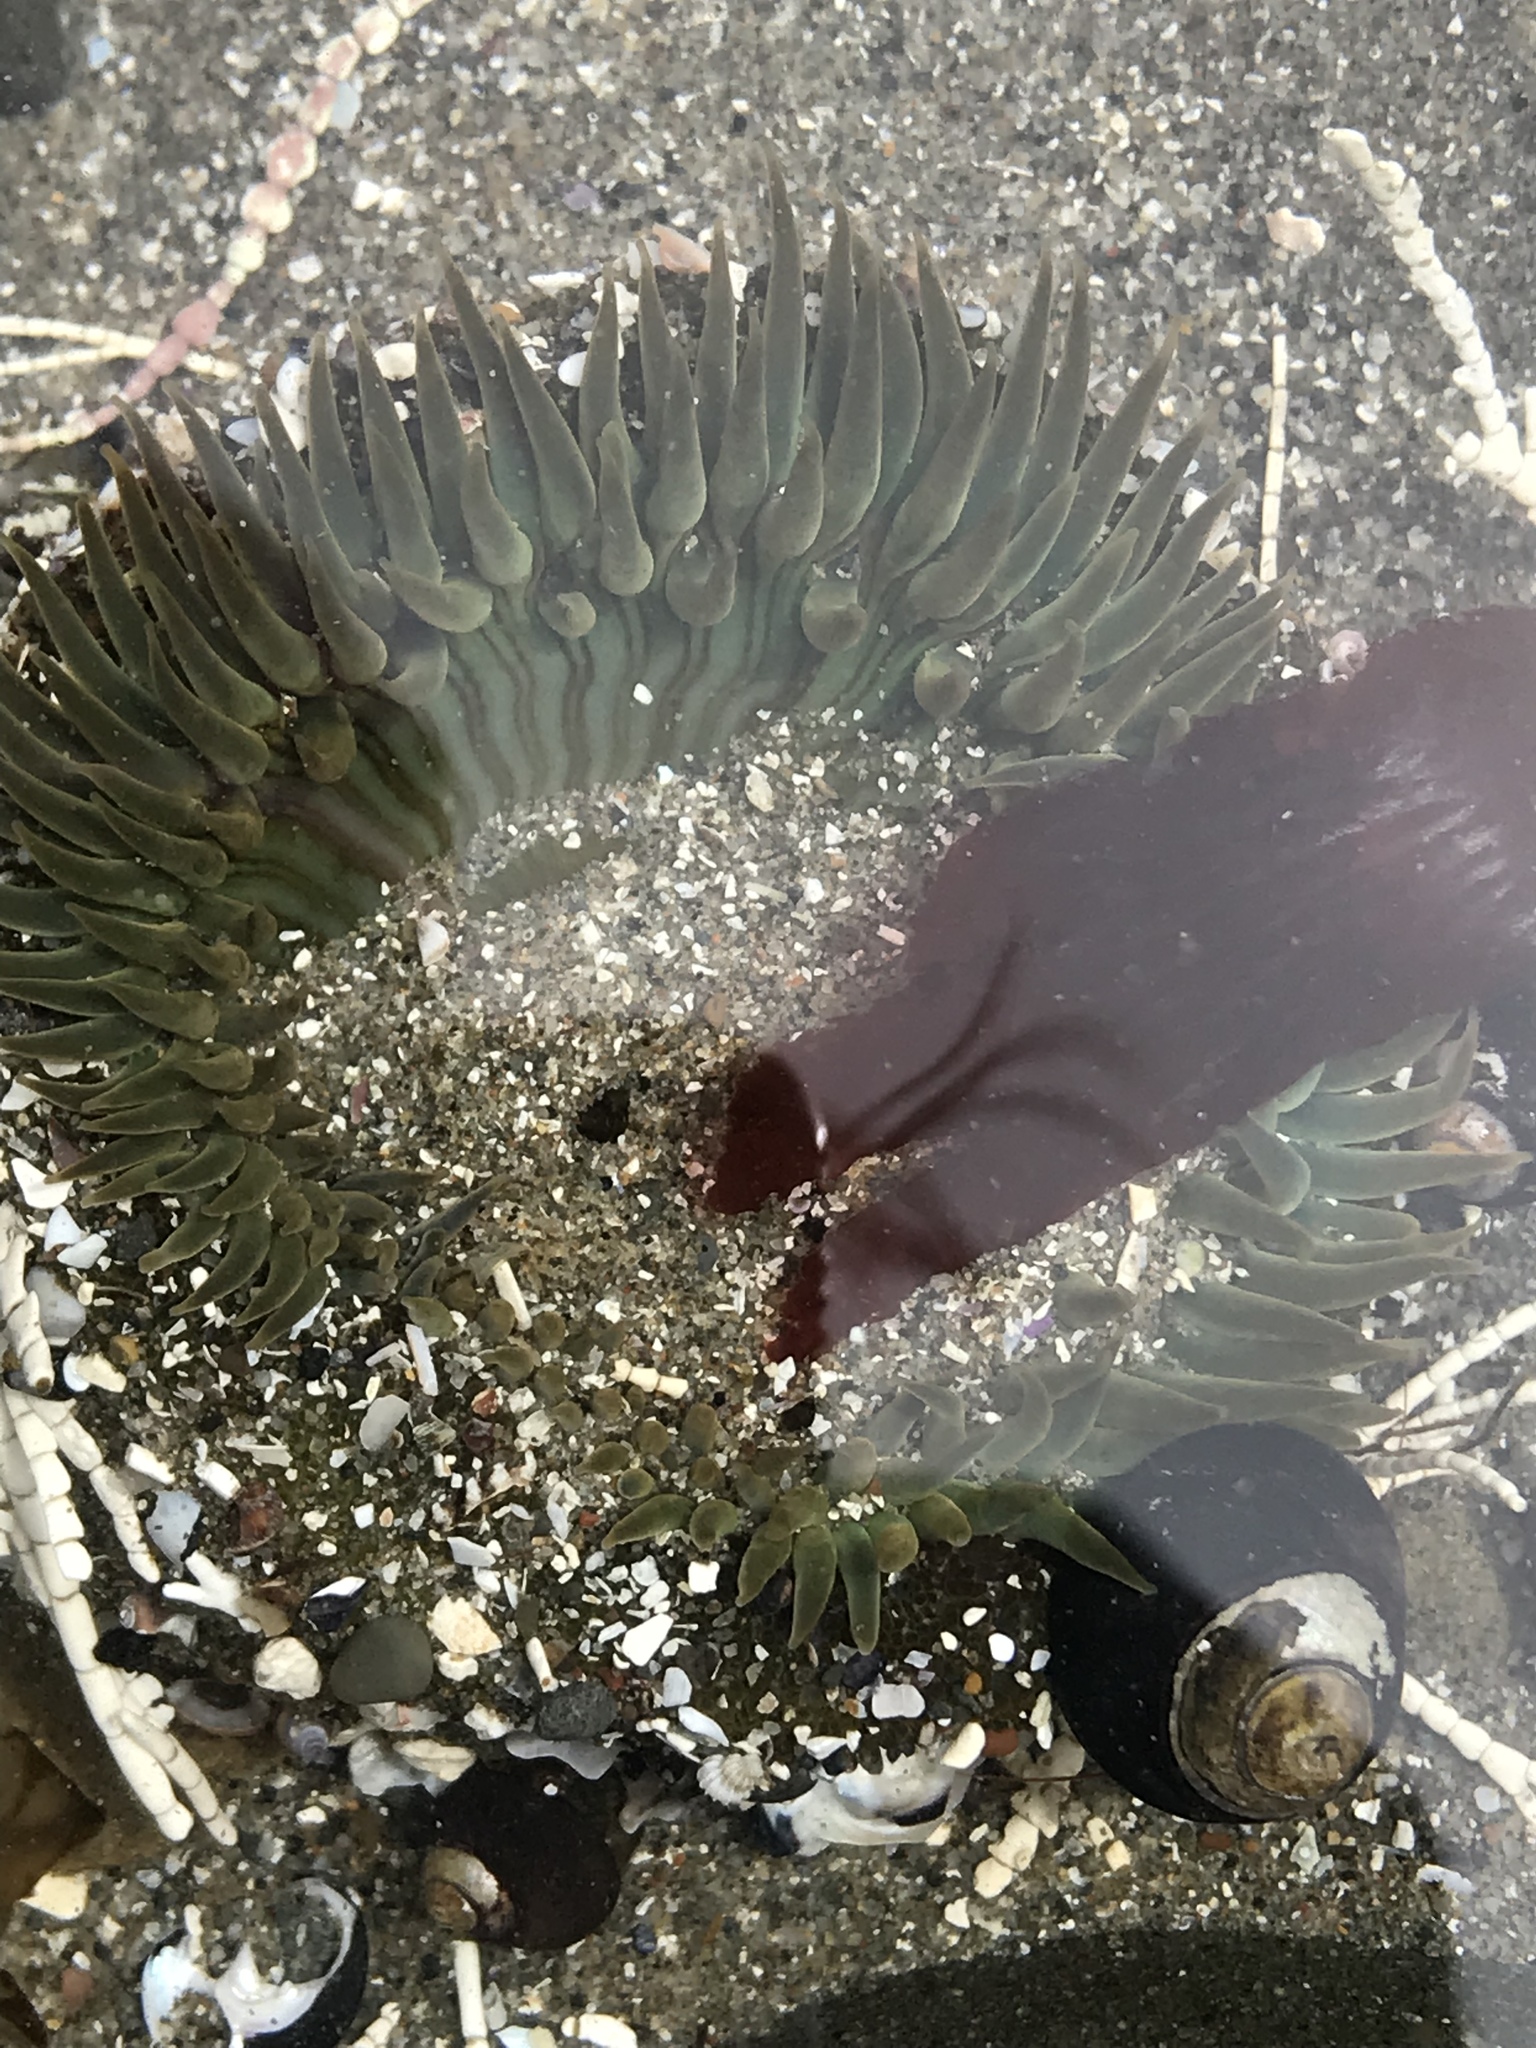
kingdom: Animalia
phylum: Cnidaria
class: Anthozoa
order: Actiniaria
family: Actiniidae
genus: Anthopleura
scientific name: Anthopleura sola
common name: Sun anemone
